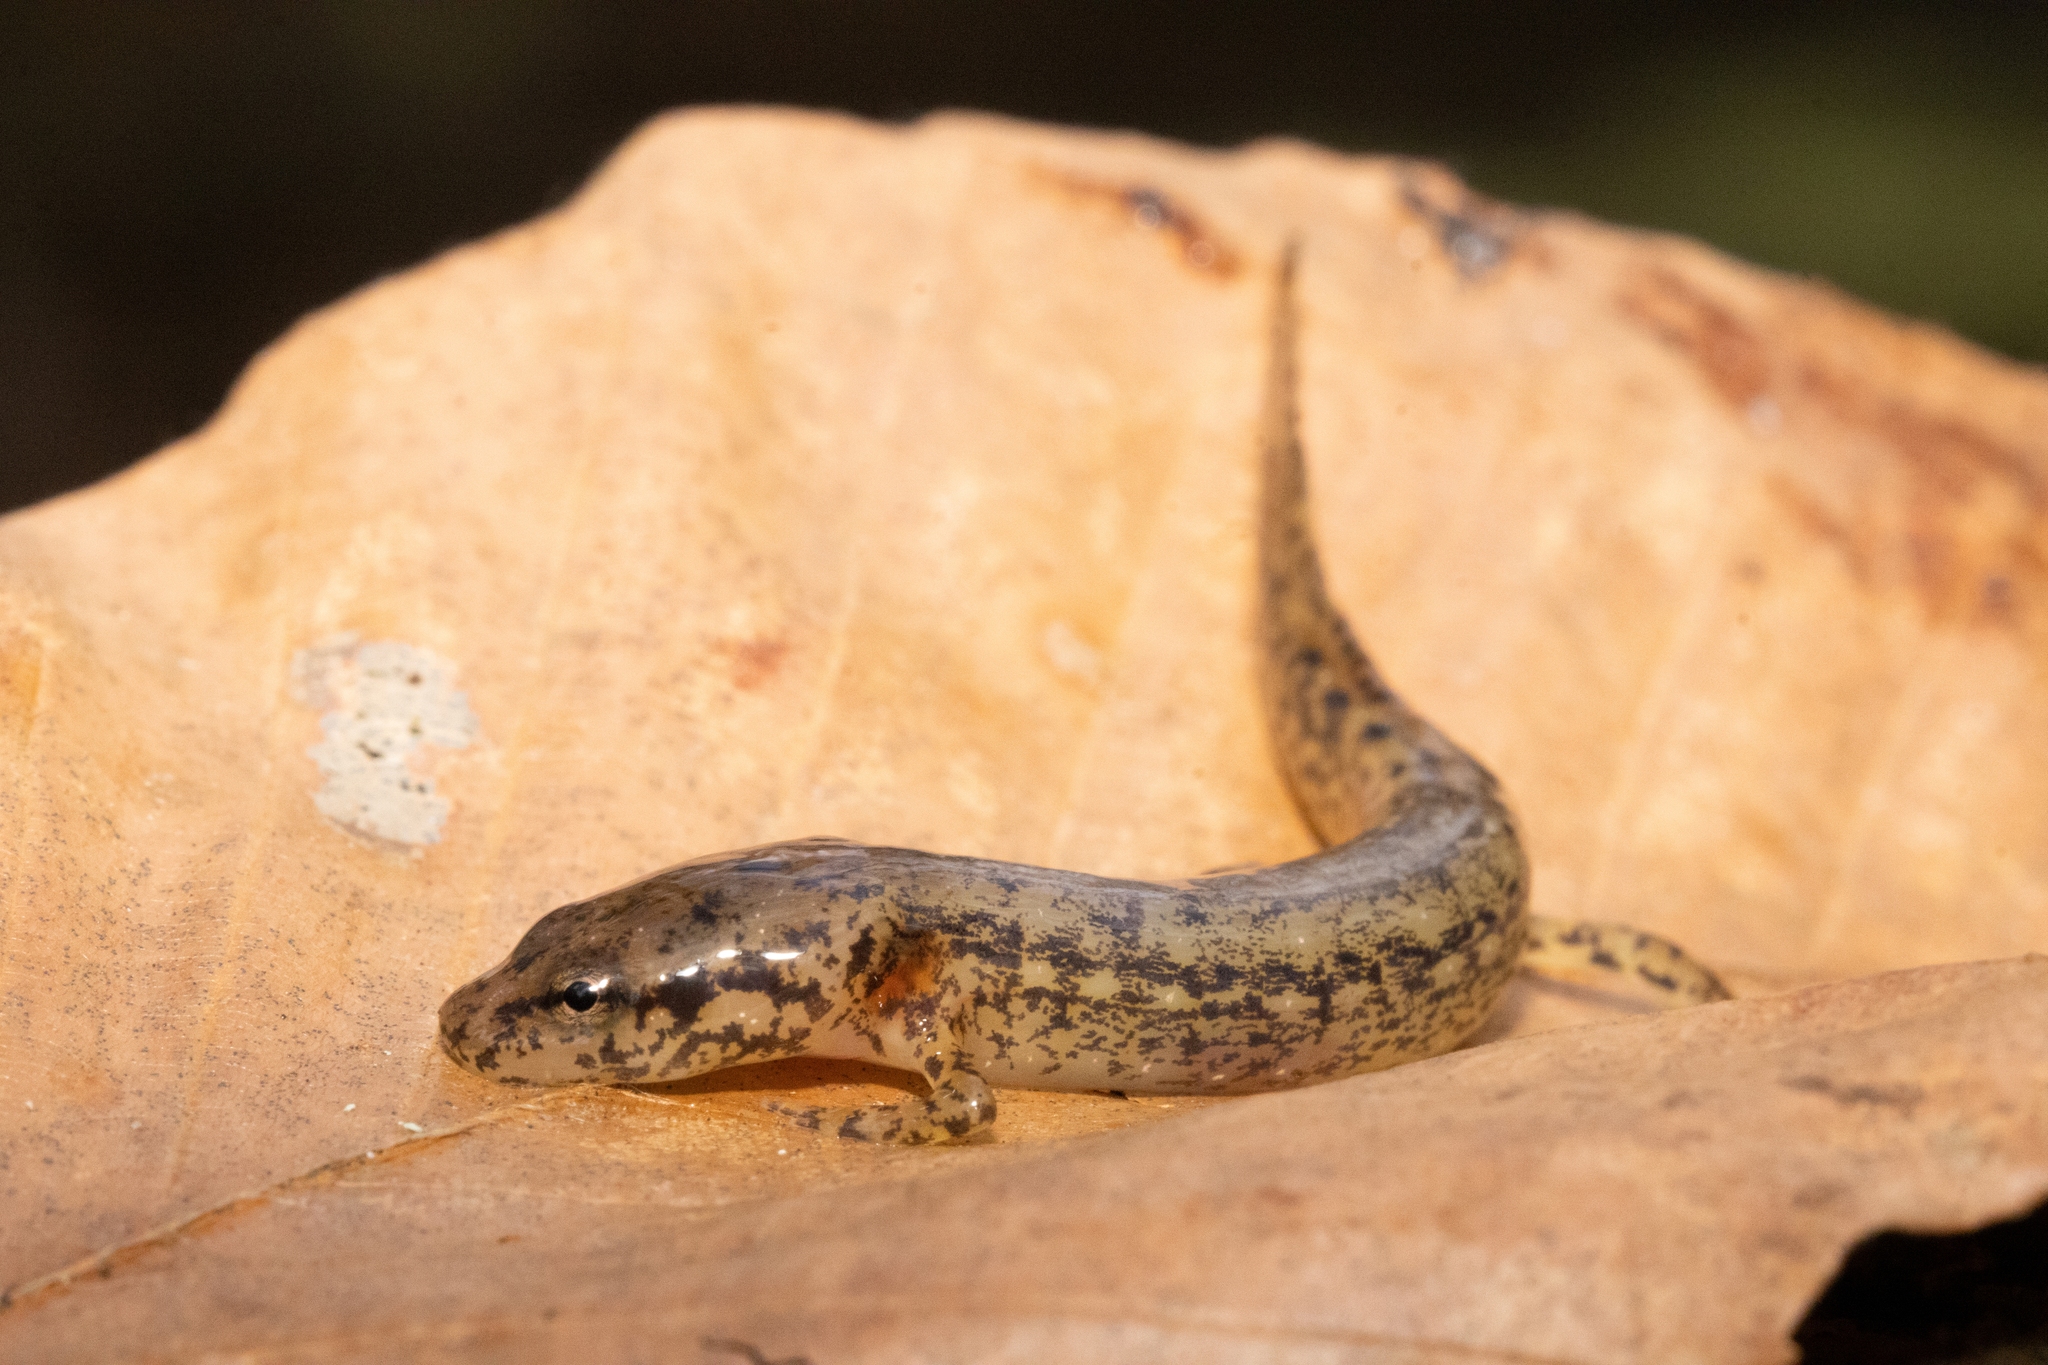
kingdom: Animalia
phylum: Chordata
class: Amphibia
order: Caudata
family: Plethodontidae
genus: Eurycea
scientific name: Eurycea cirrigera
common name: Southern two-lined salamander
